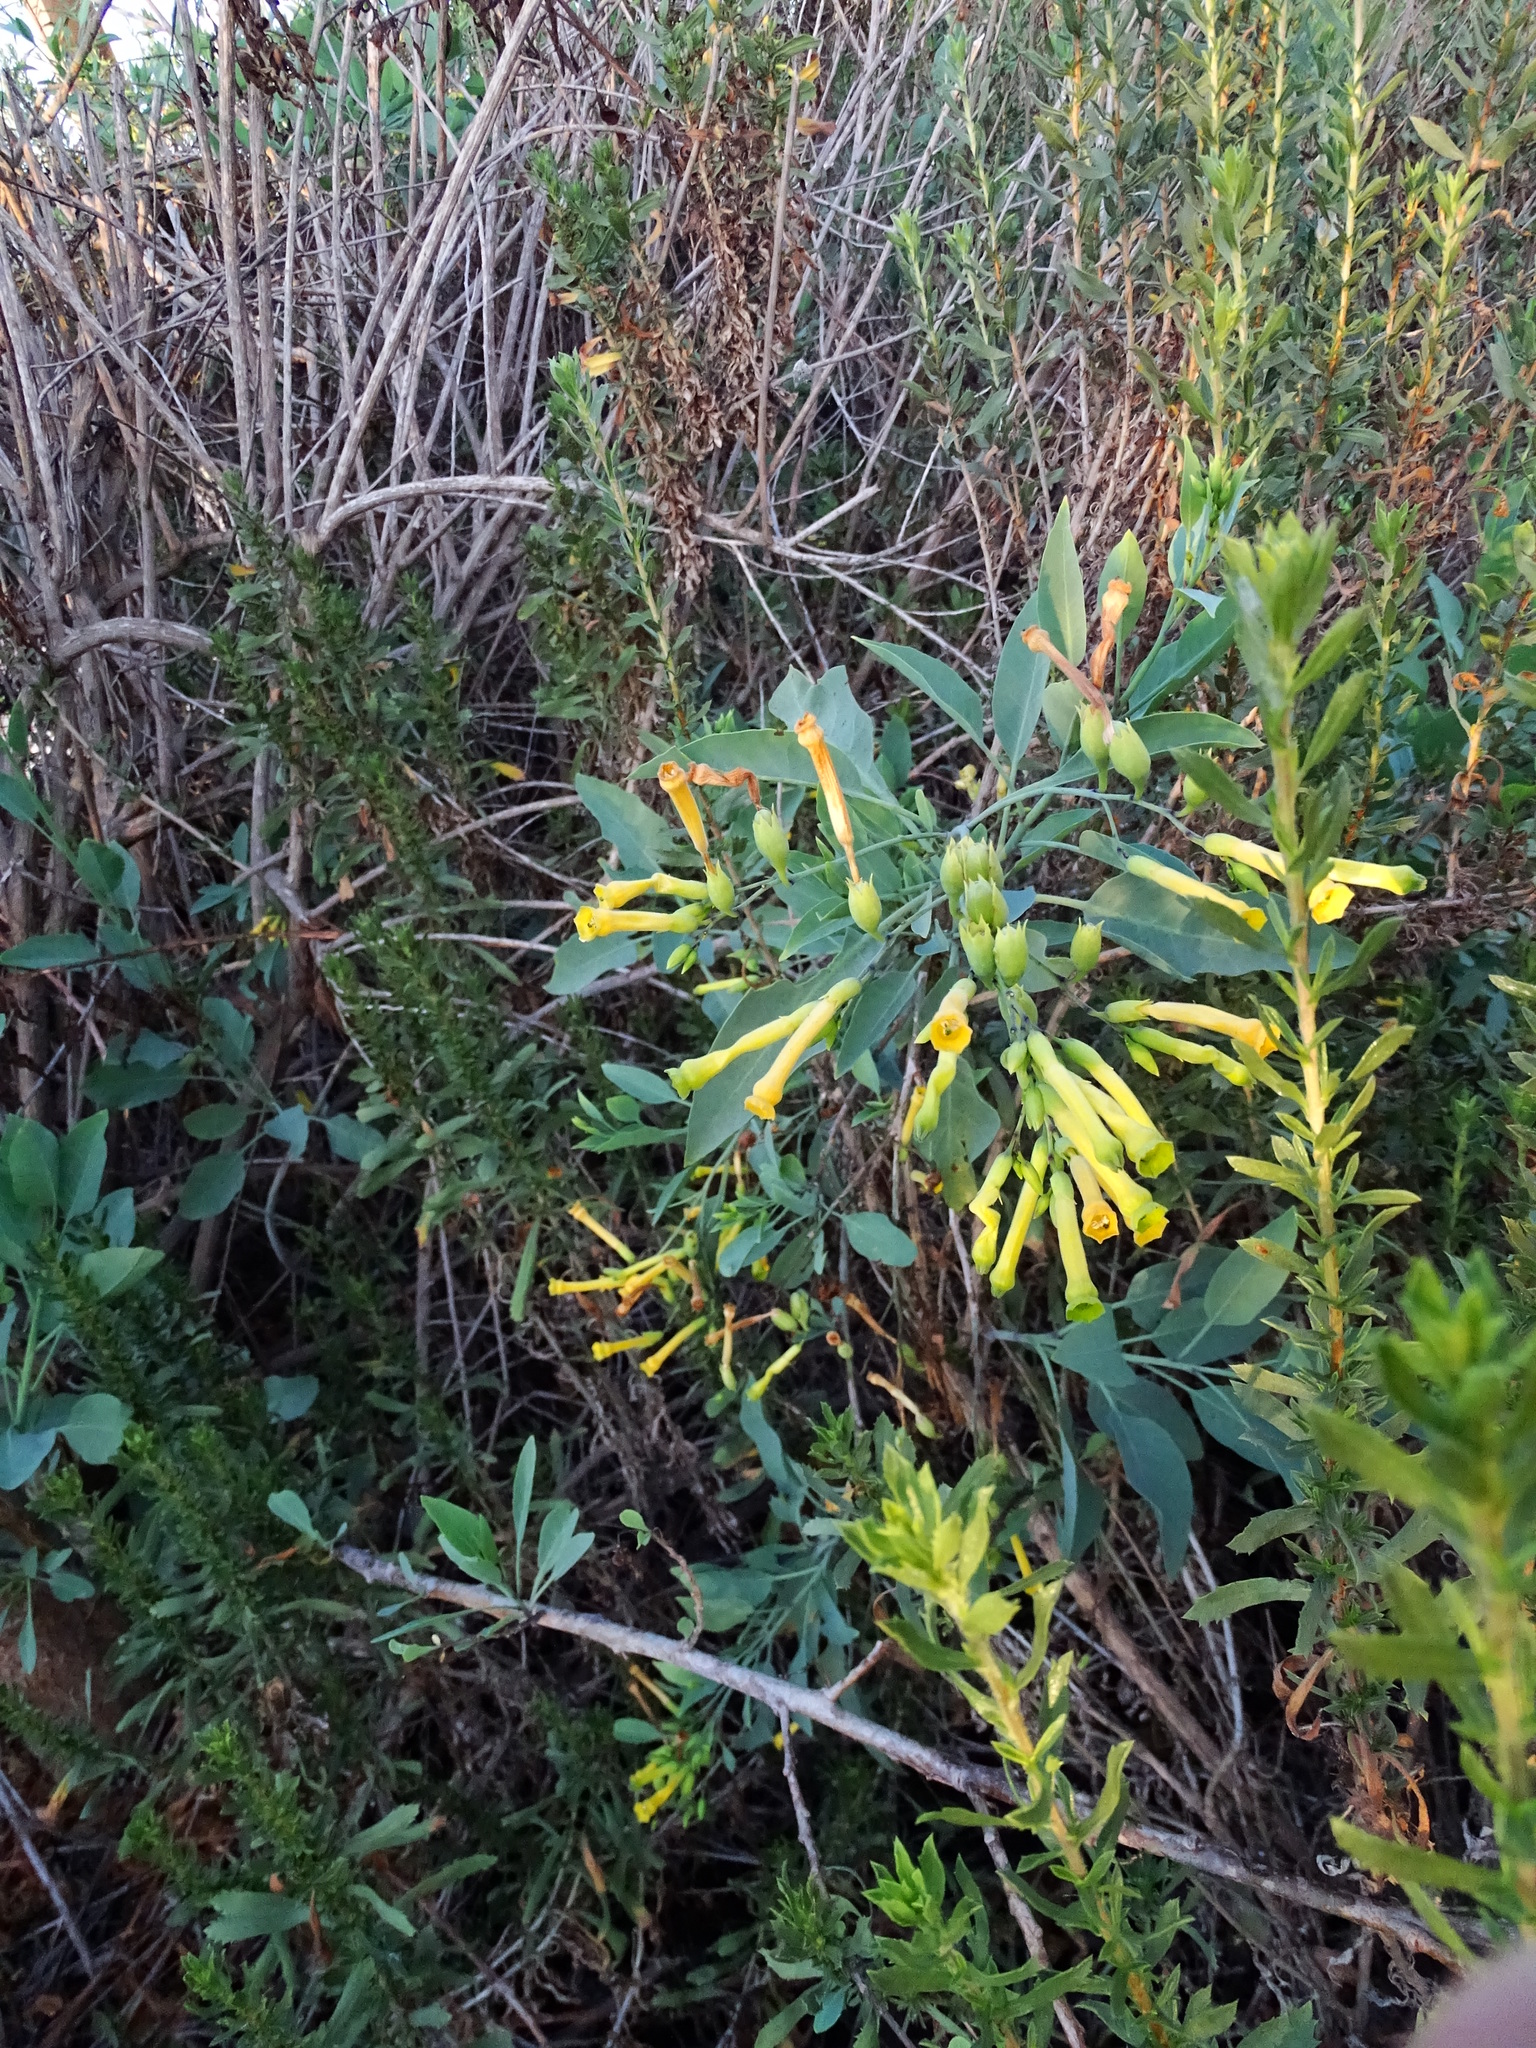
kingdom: Plantae
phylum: Tracheophyta
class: Magnoliopsida
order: Solanales
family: Solanaceae
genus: Nicotiana
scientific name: Nicotiana glauca
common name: Tree tobacco
